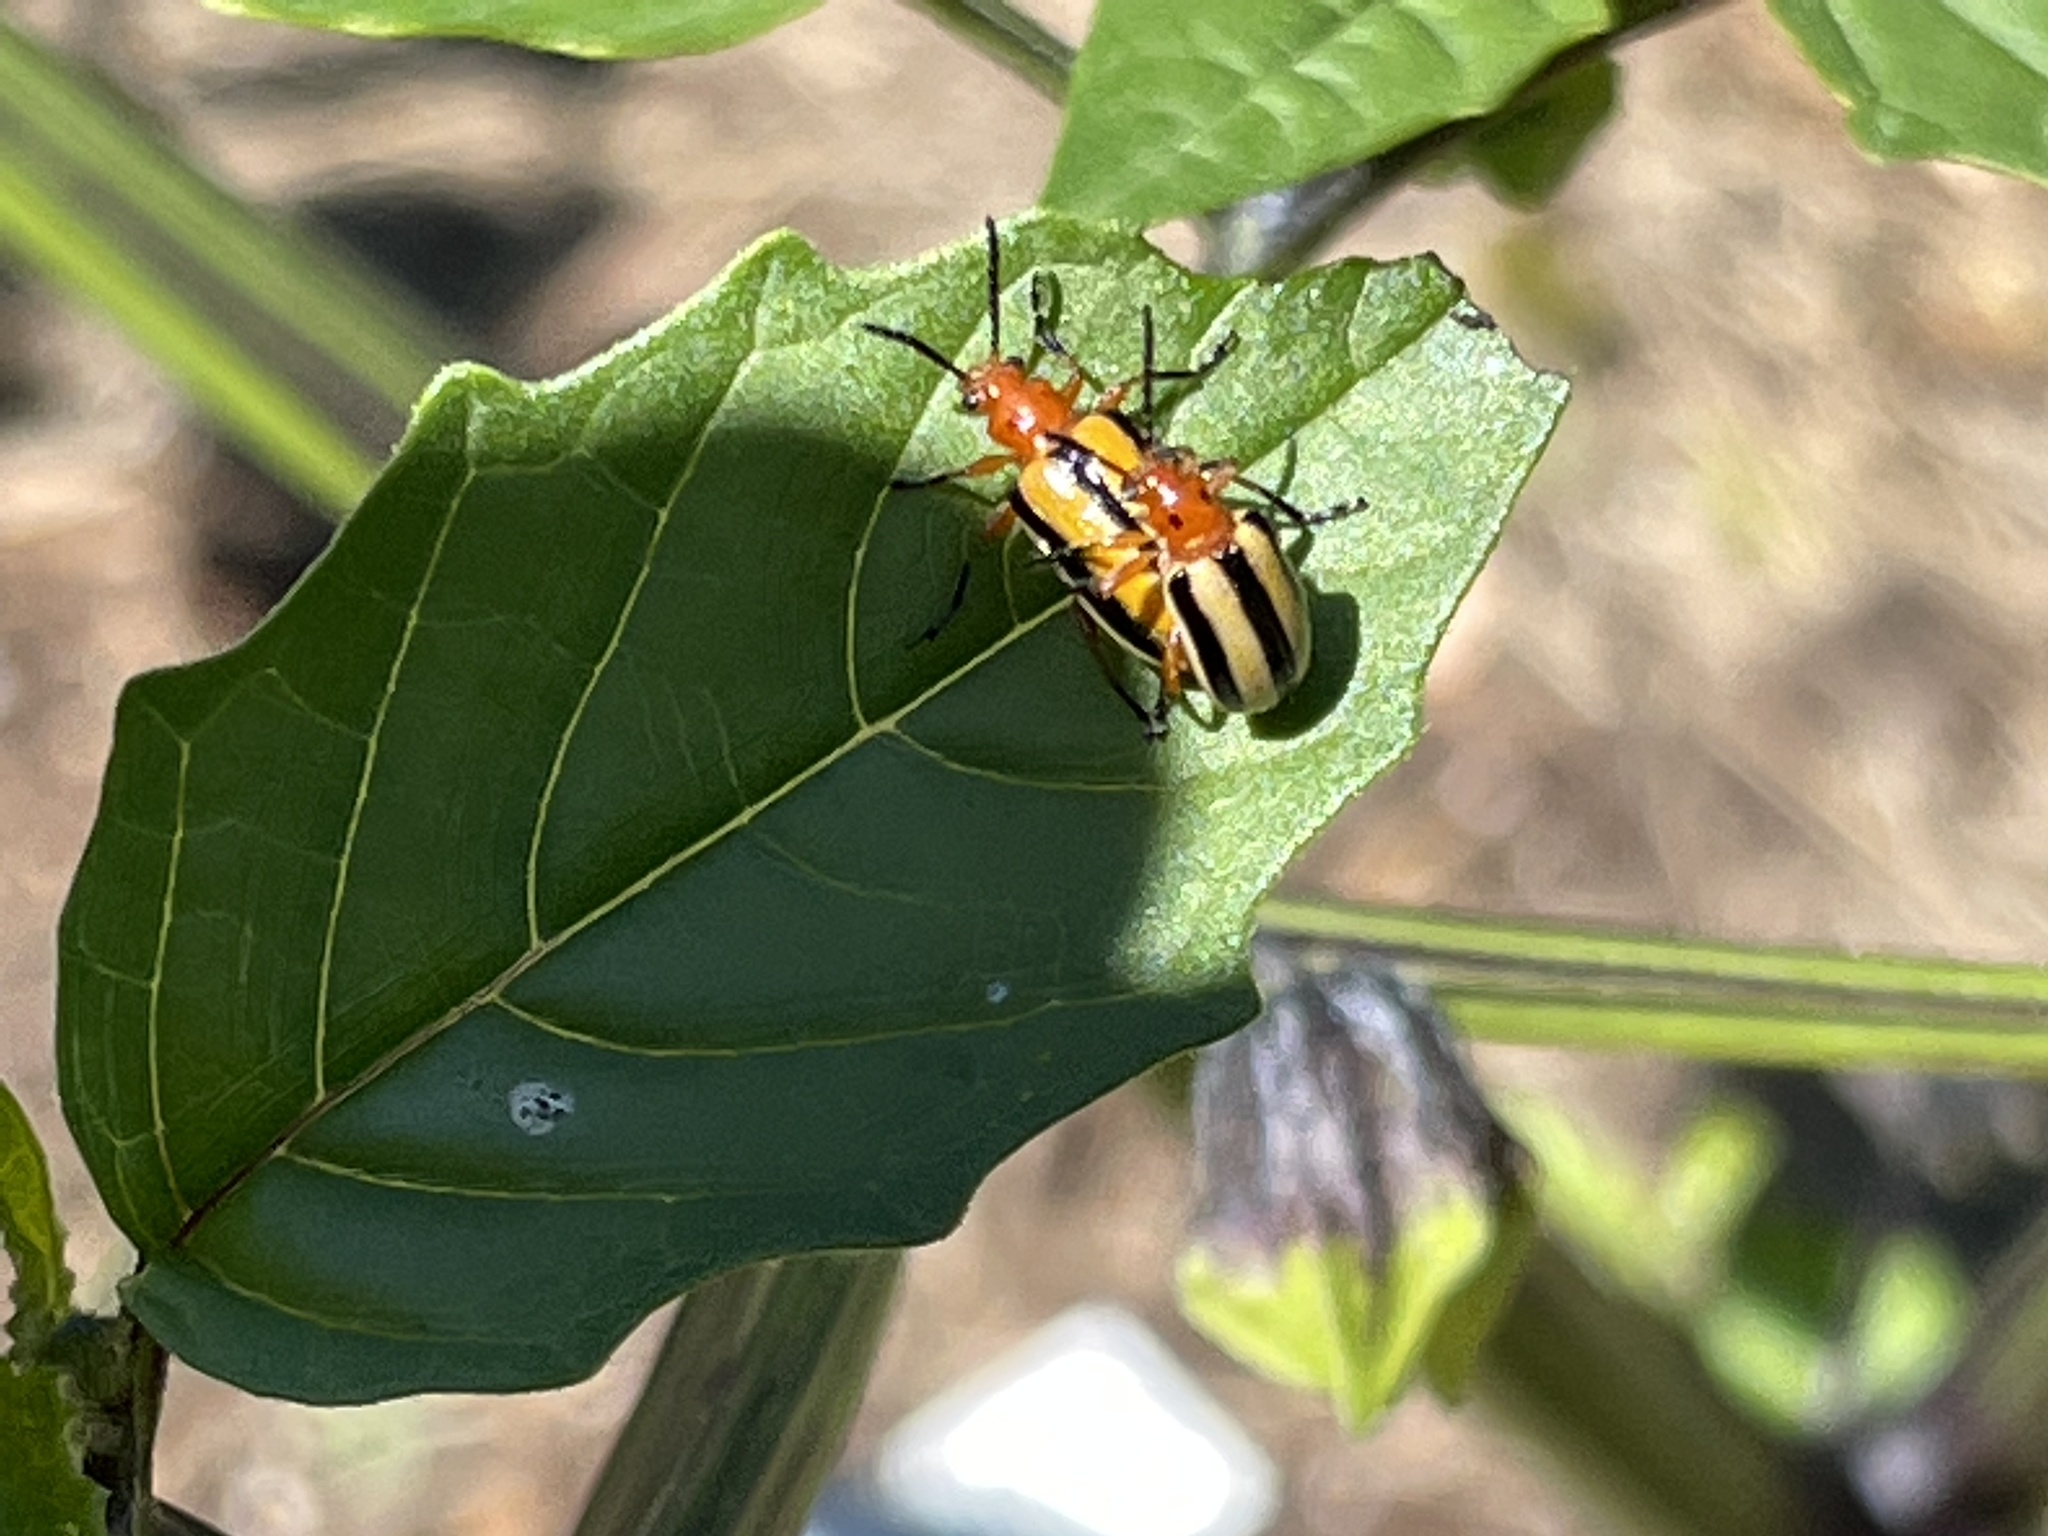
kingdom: Animalia
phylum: Arthropoda
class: Insecta
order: Coleoptera
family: Chrysomelidae
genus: Lema
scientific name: Lema daturaphila
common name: Leaf beetle
